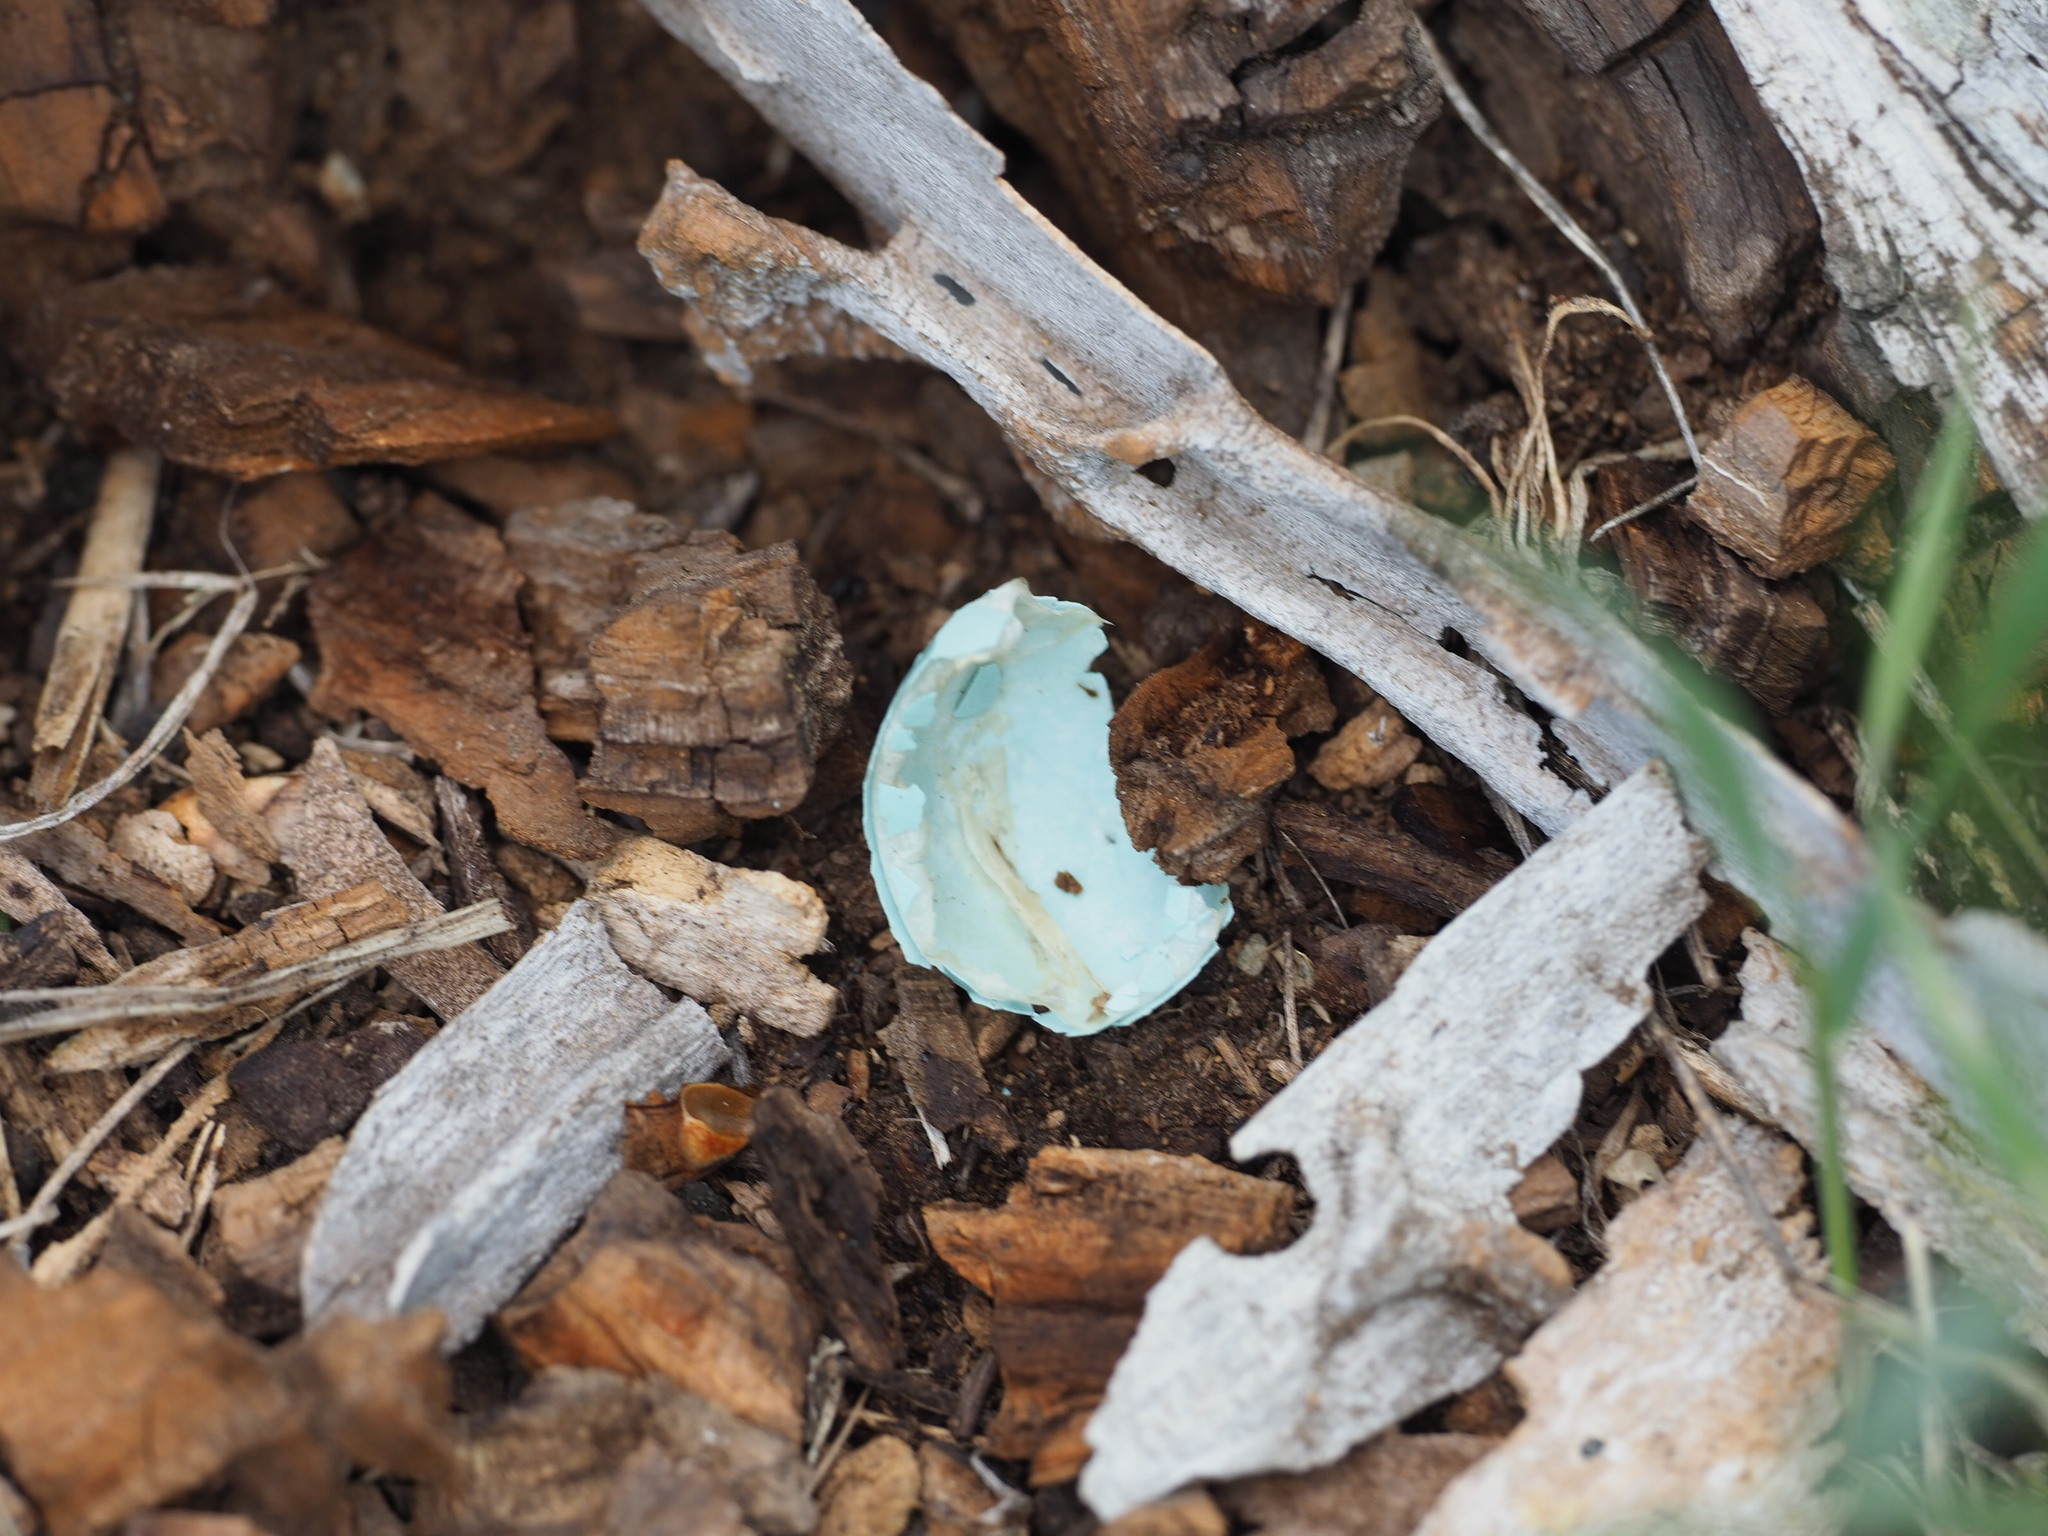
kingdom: Animalia
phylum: Chordata
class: Aves
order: Passeriformes
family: Turdidae
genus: Turdus
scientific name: Turdus migratorius
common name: American robin
